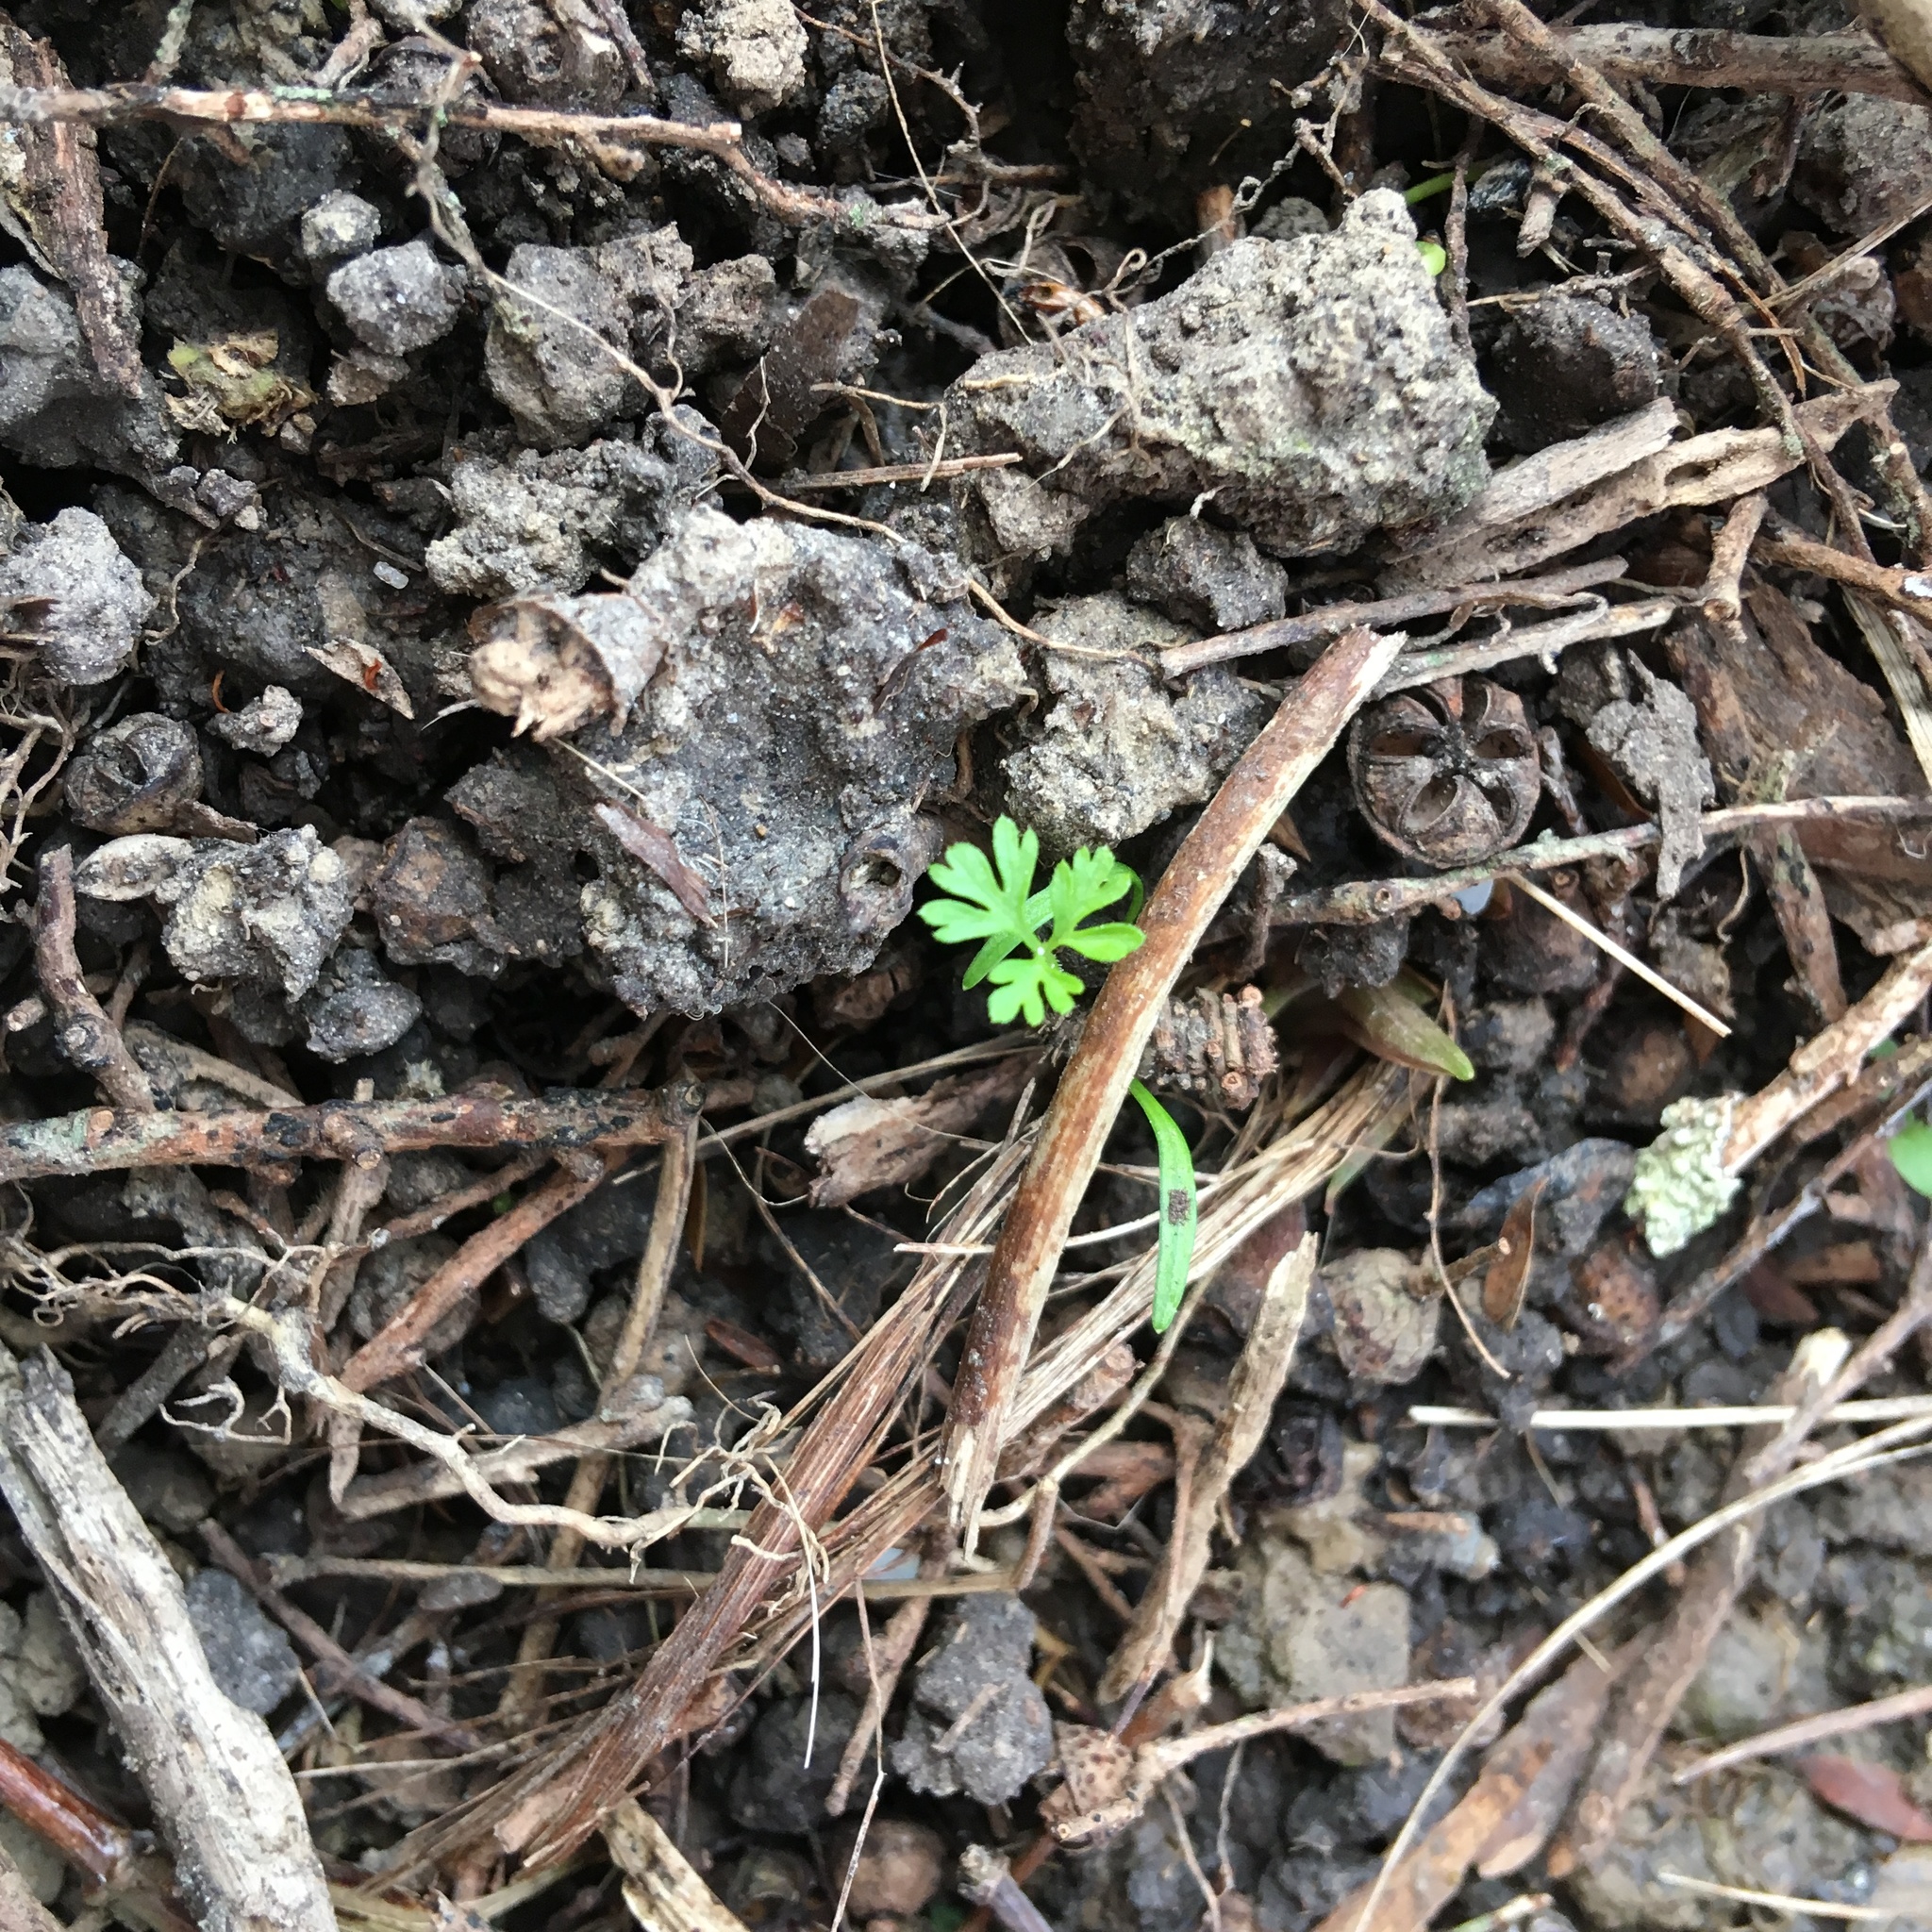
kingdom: Plantae
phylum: Tracheophyta
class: Magnoliopsida
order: Ranunculales
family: Papaveraceae
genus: Fumaria
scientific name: Fumaria muralis
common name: Common ramping-fumitory
